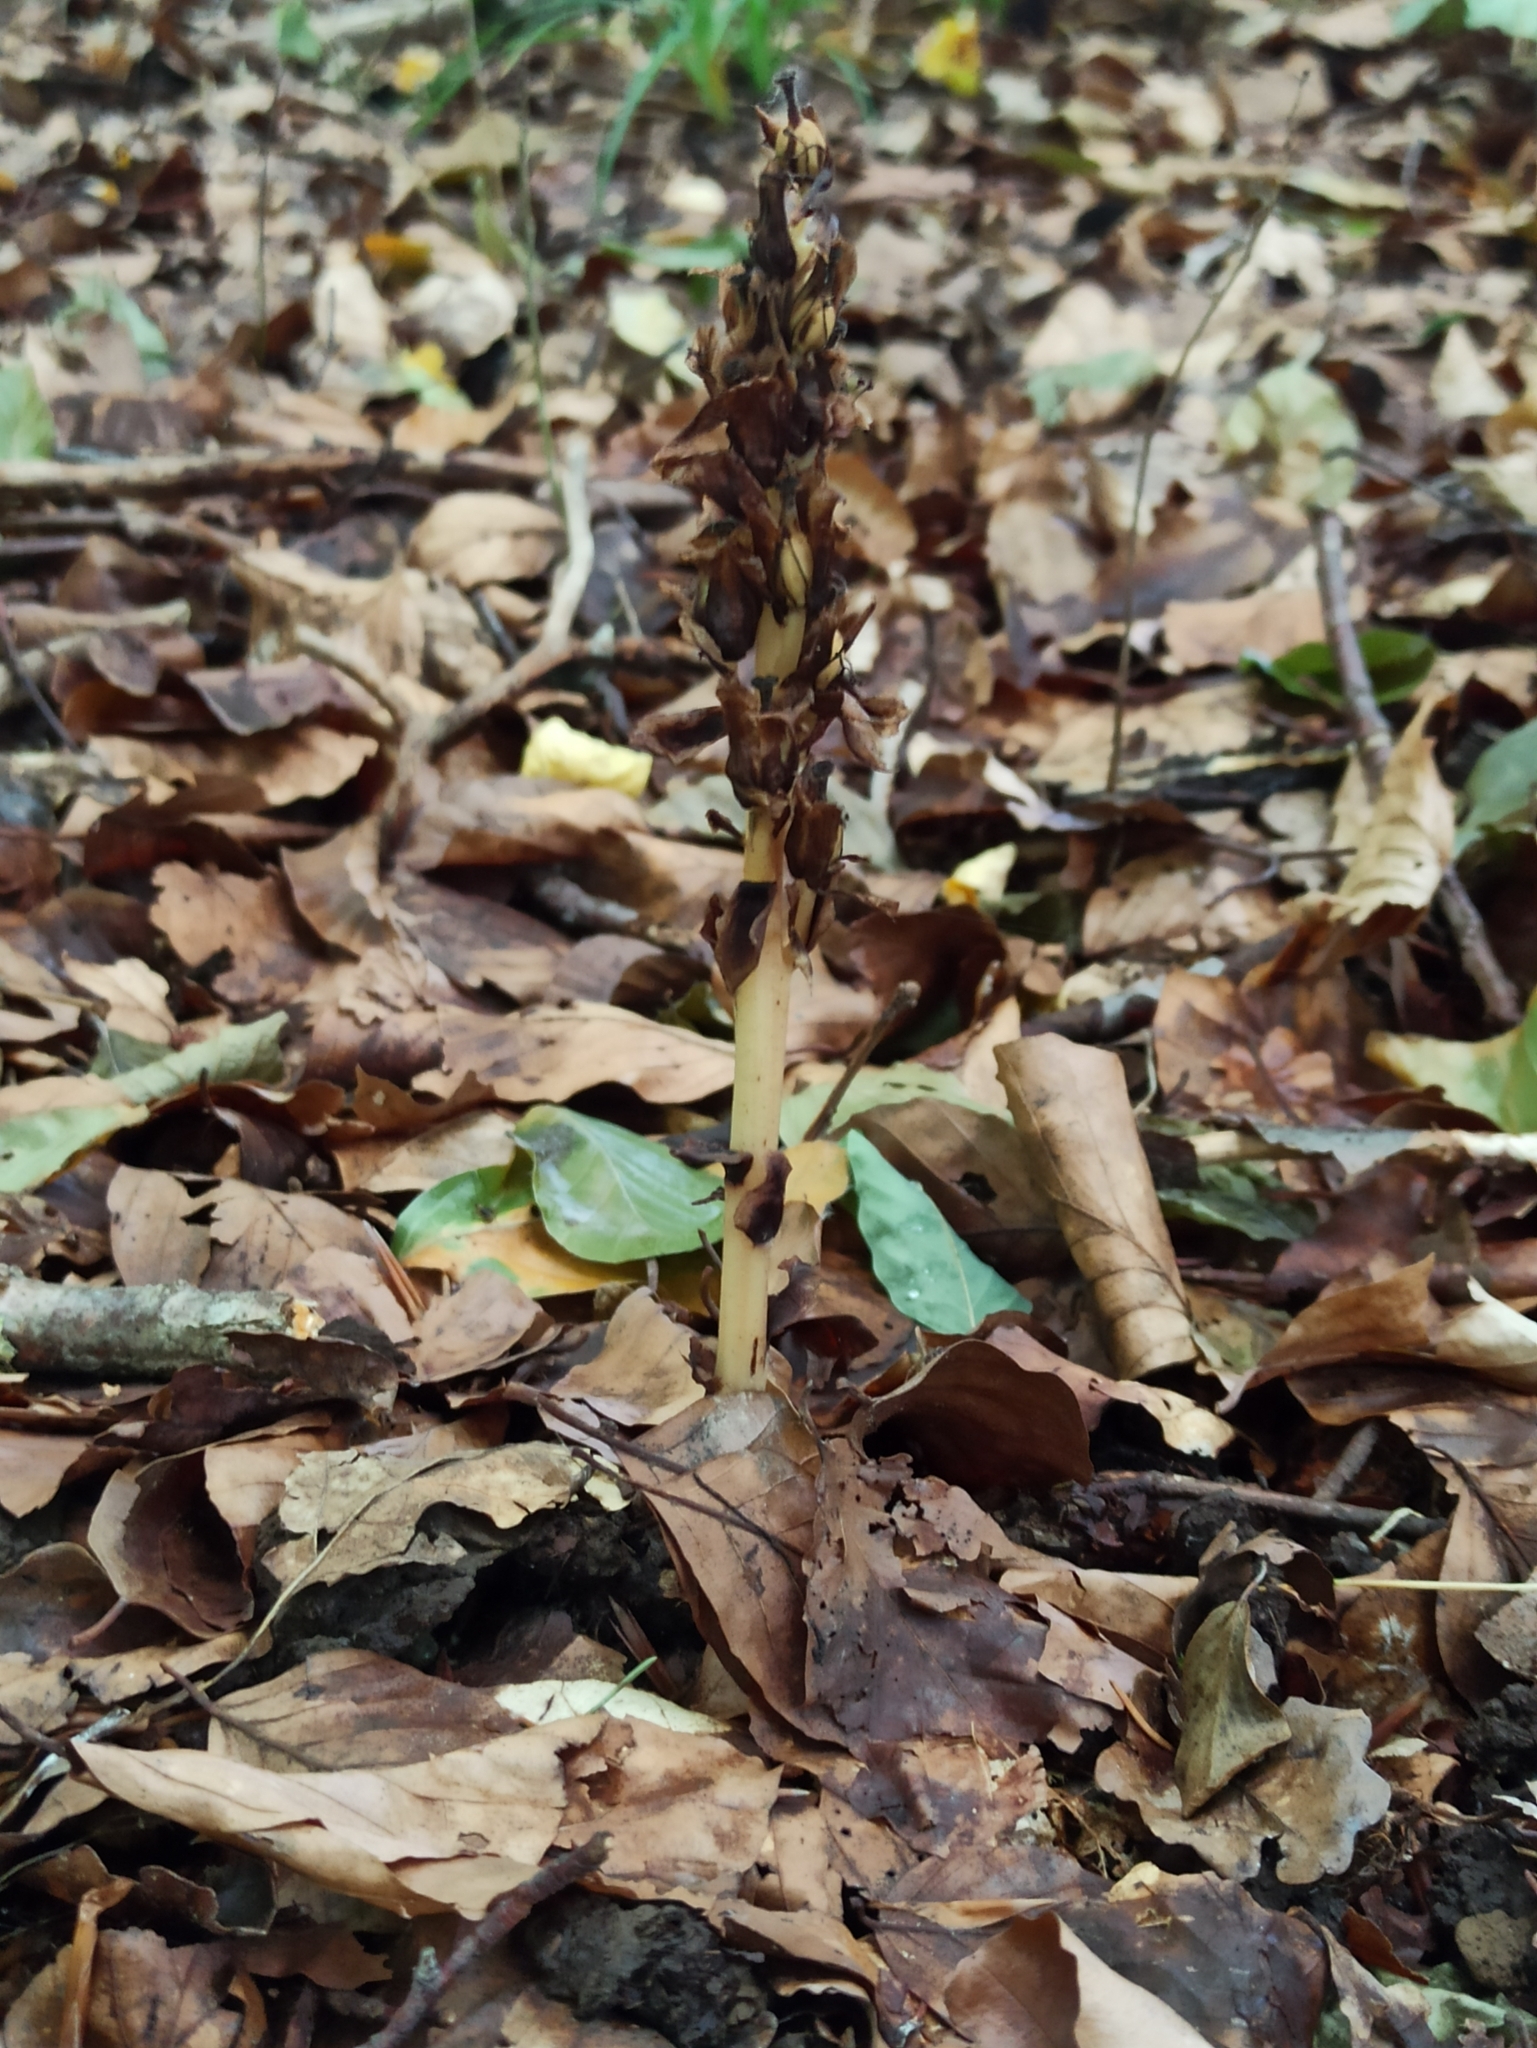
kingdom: Plantae
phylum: Tracheophyta
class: Magnoliopsida
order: Ericales
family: Ericaceae
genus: Hypopitys
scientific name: Hypopitys monotropa
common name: Yellow bird's-nest
